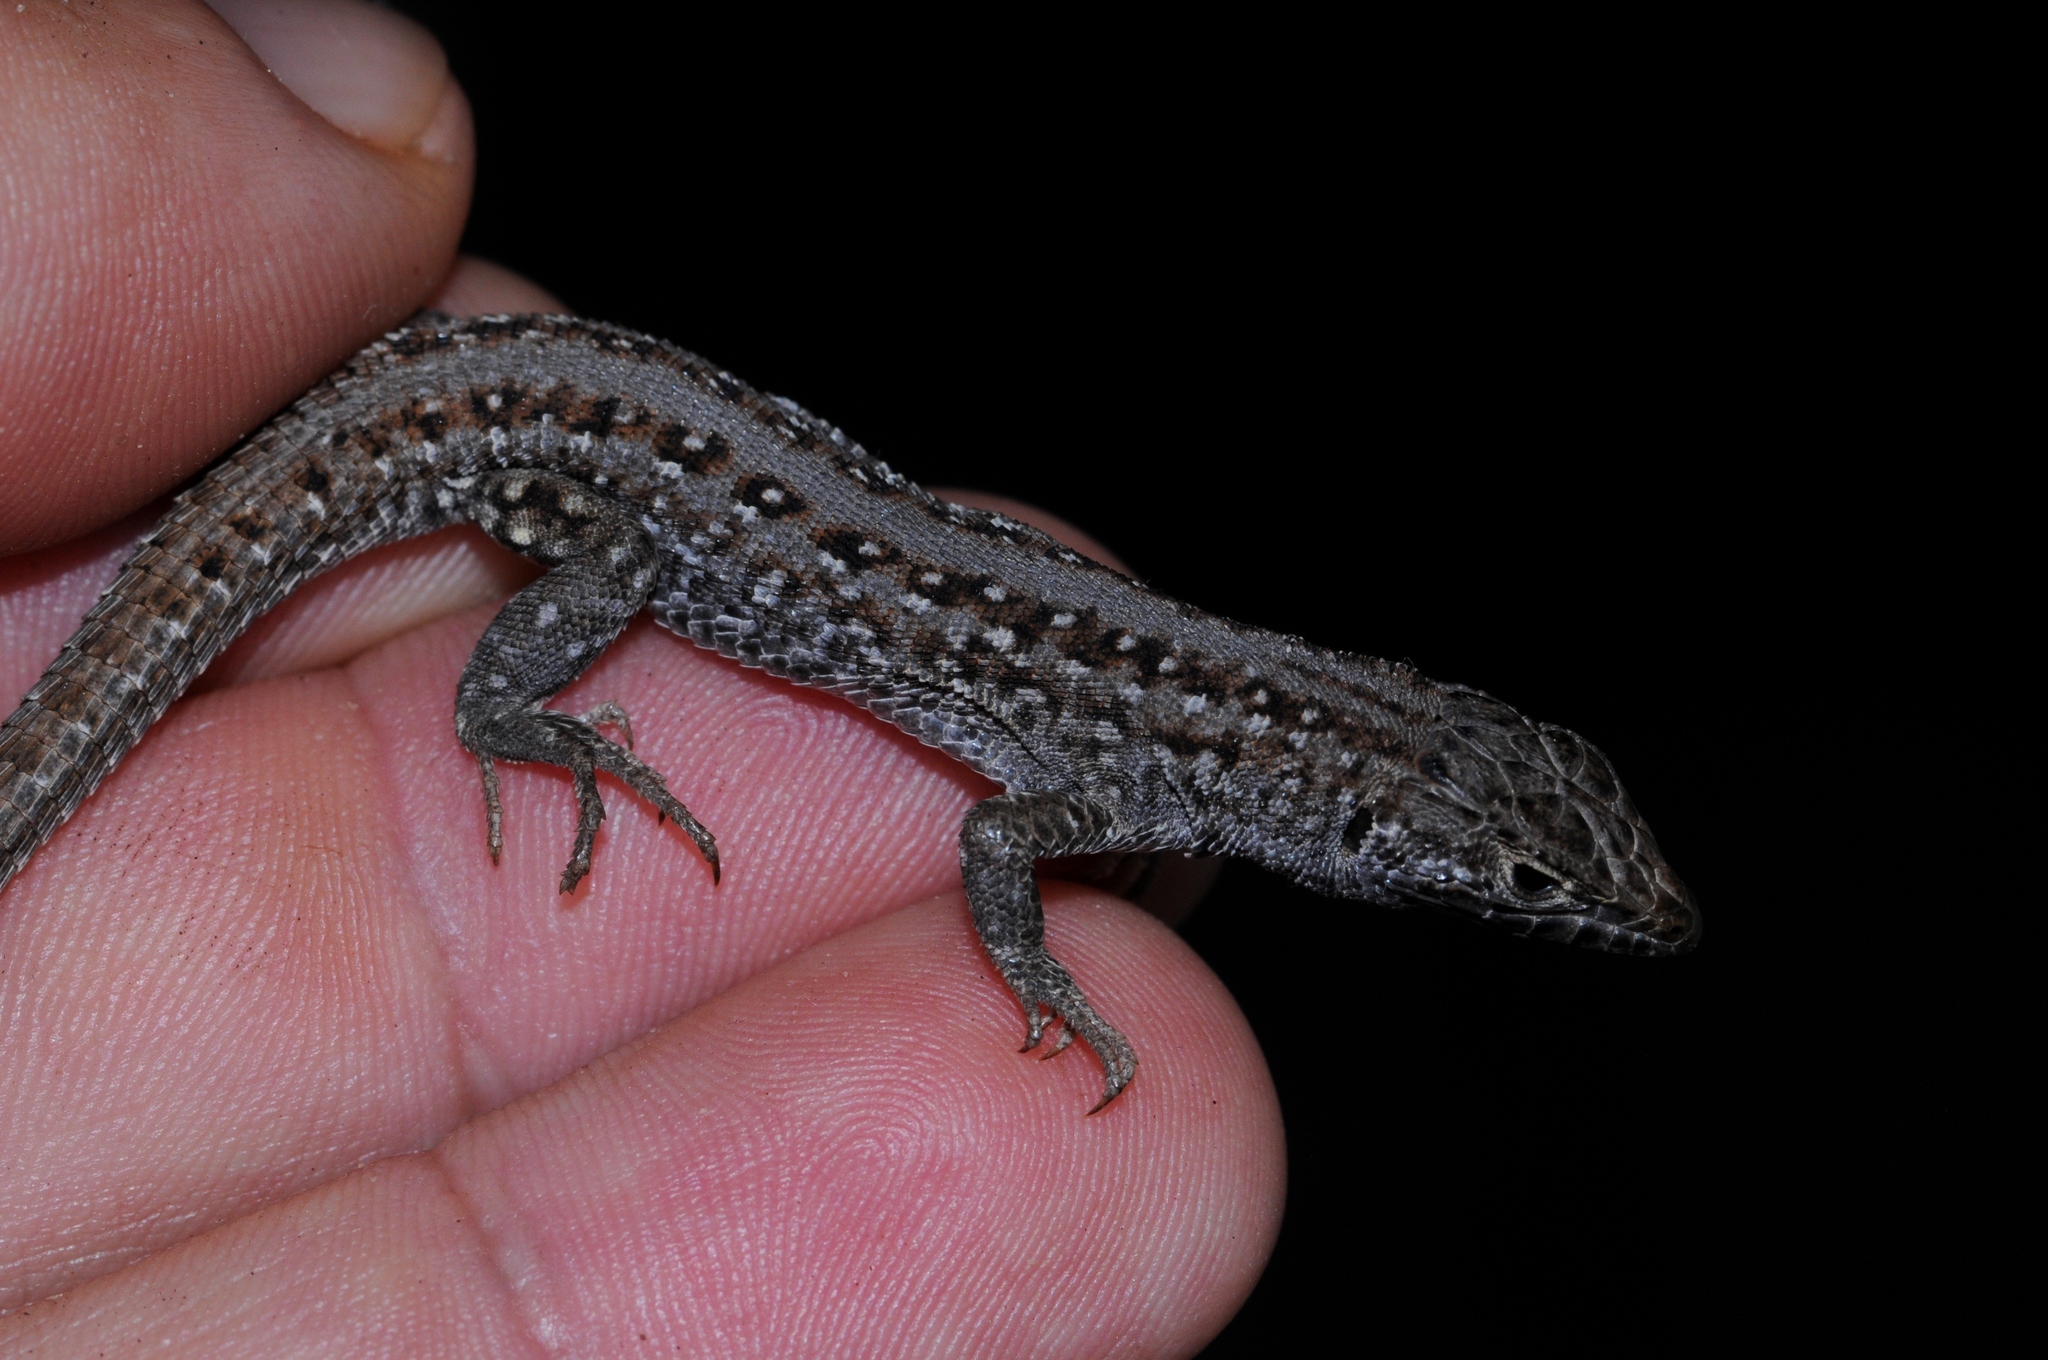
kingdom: Animalia
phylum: Chordata
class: Squamata
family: Lacertidae
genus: Meroles
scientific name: Meroles knoxii
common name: Knox's desert lizard
